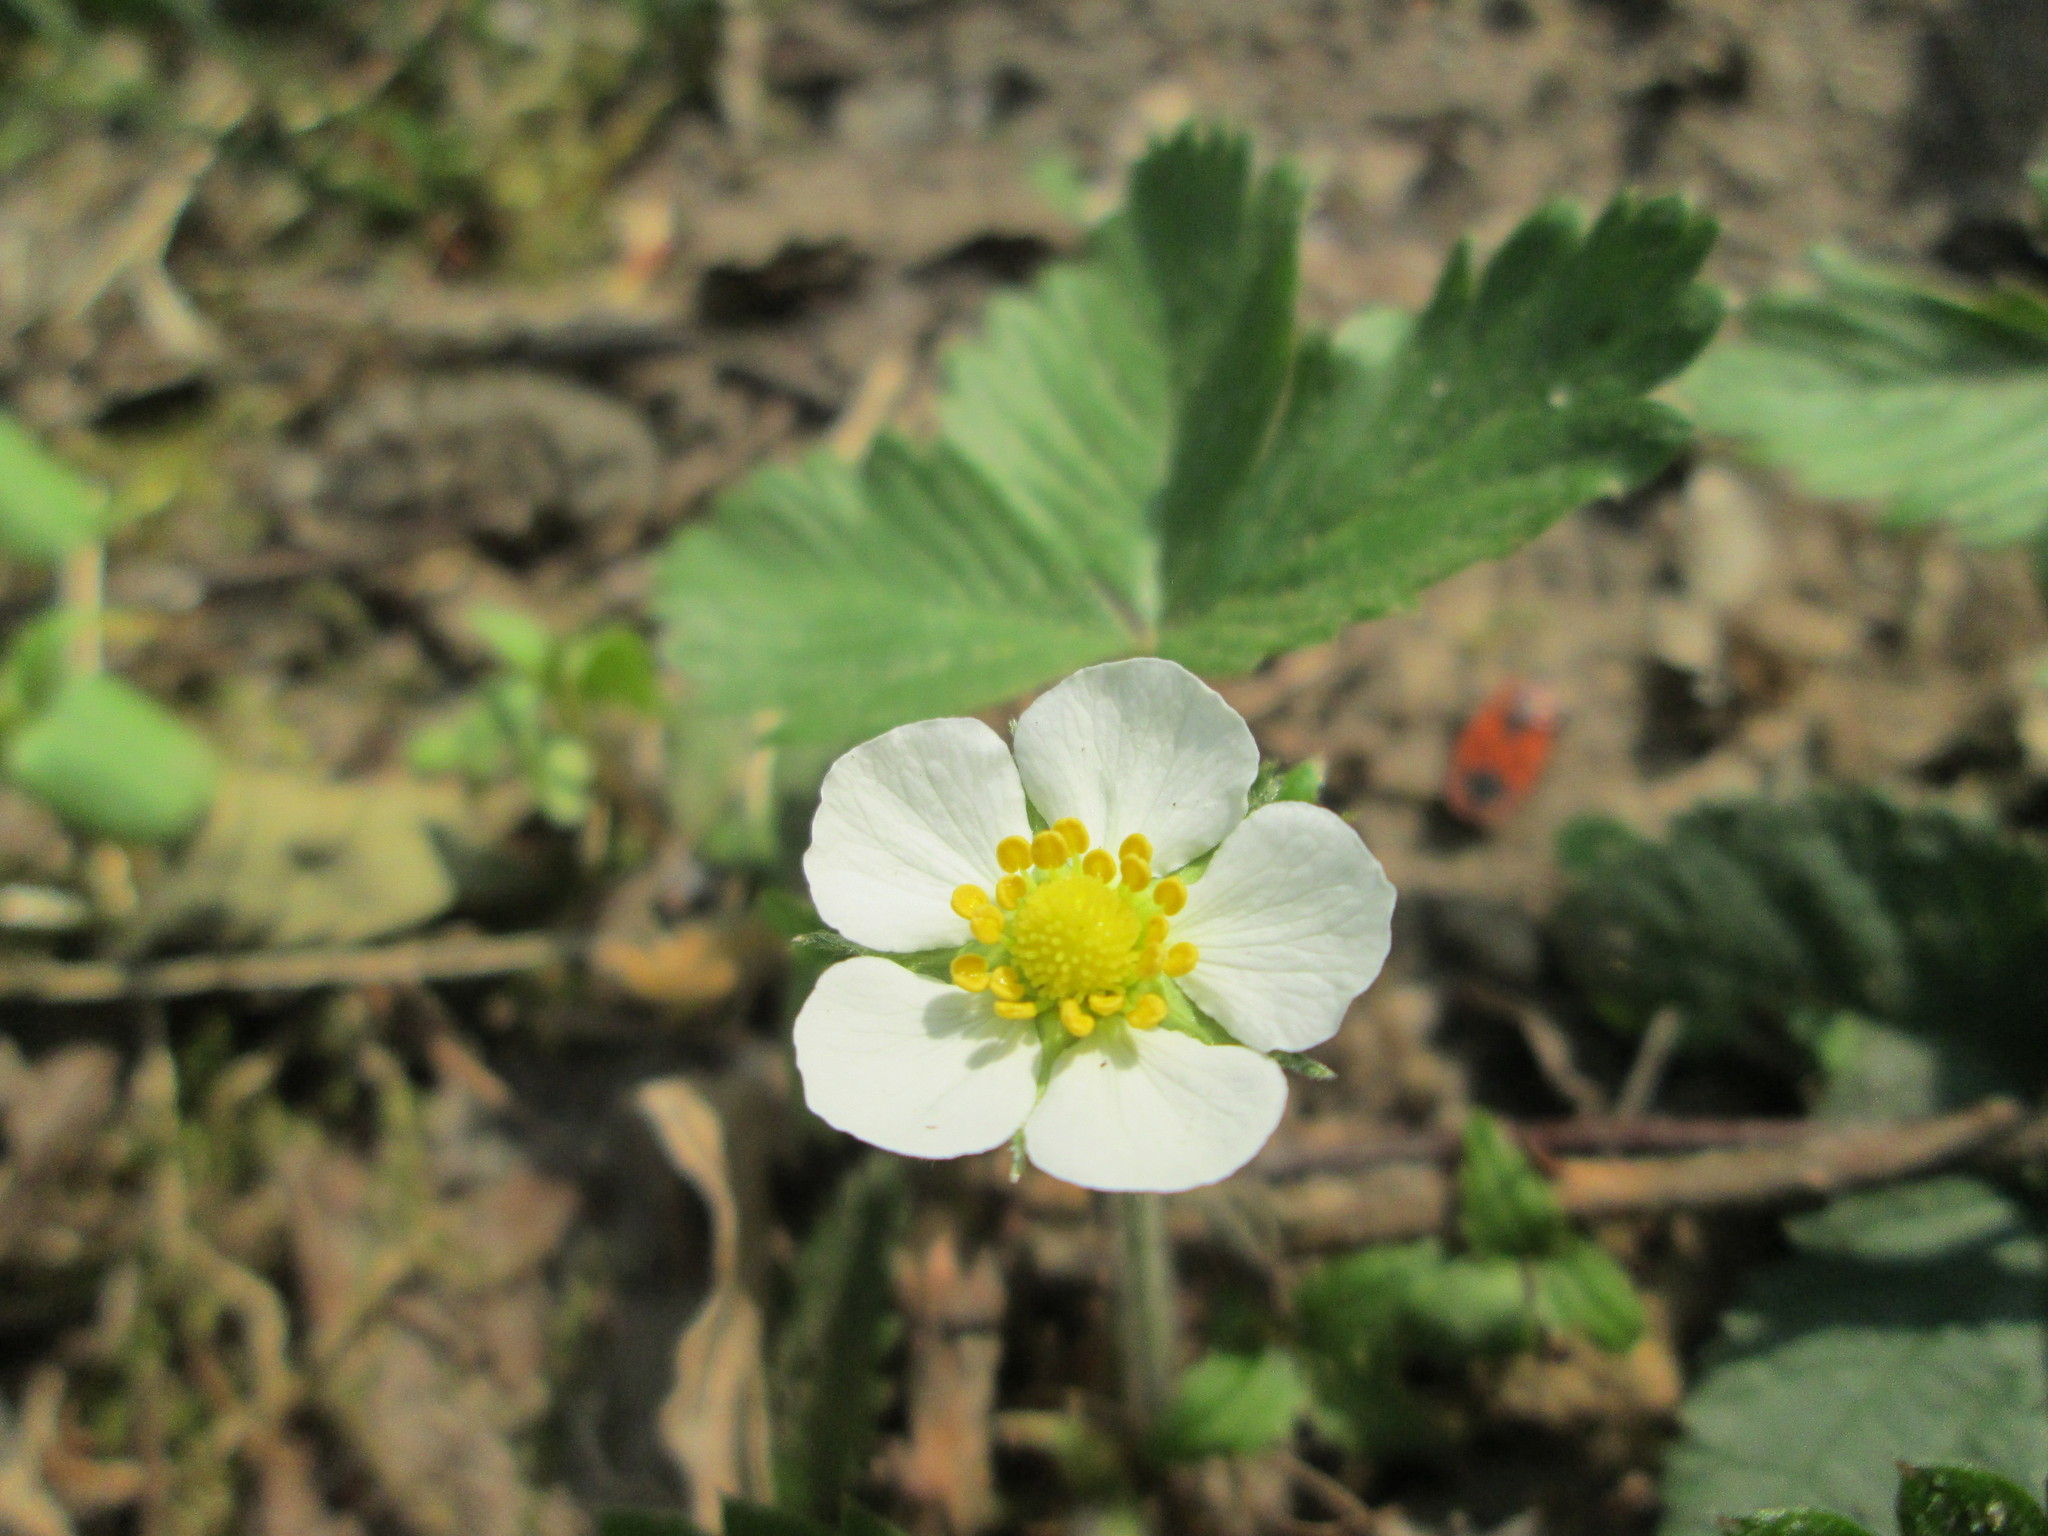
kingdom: Plantae
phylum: Tracheophyta
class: Magnoliopsida
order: Rosales
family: Rosaceae
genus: Fragaria
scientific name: Fragaria vesca
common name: Wild strawberry
